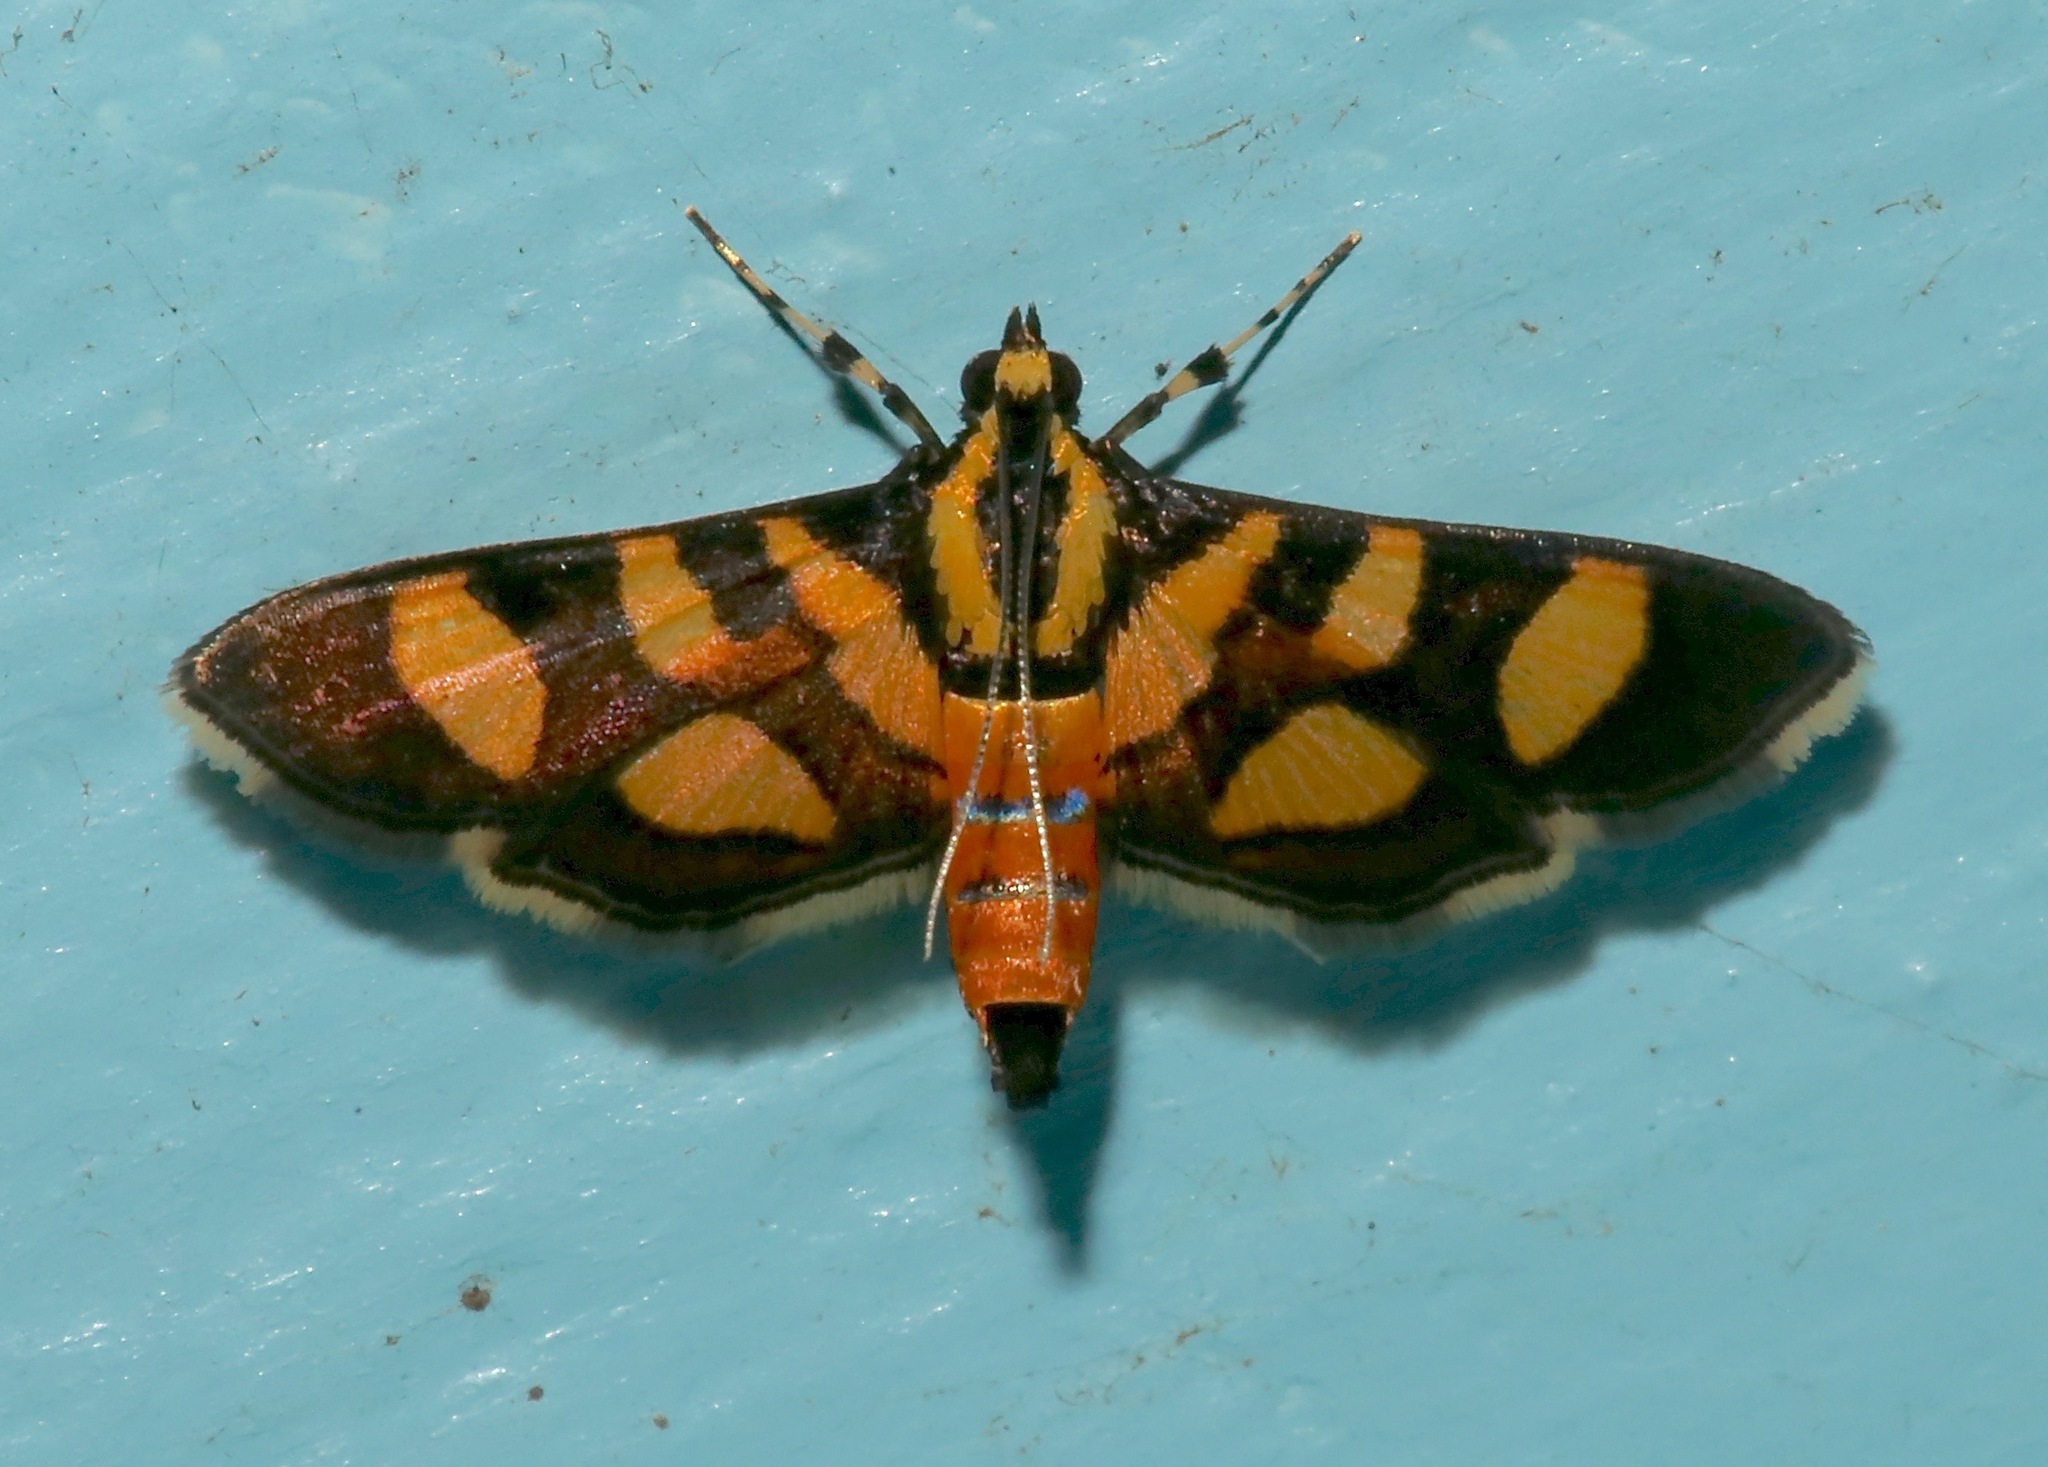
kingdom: Animalia
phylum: Arthropoda
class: Insecta
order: Lepidoptera
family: Crambidae
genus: Syngamia
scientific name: Syngamia florella
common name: Orange-spotted flower moth
